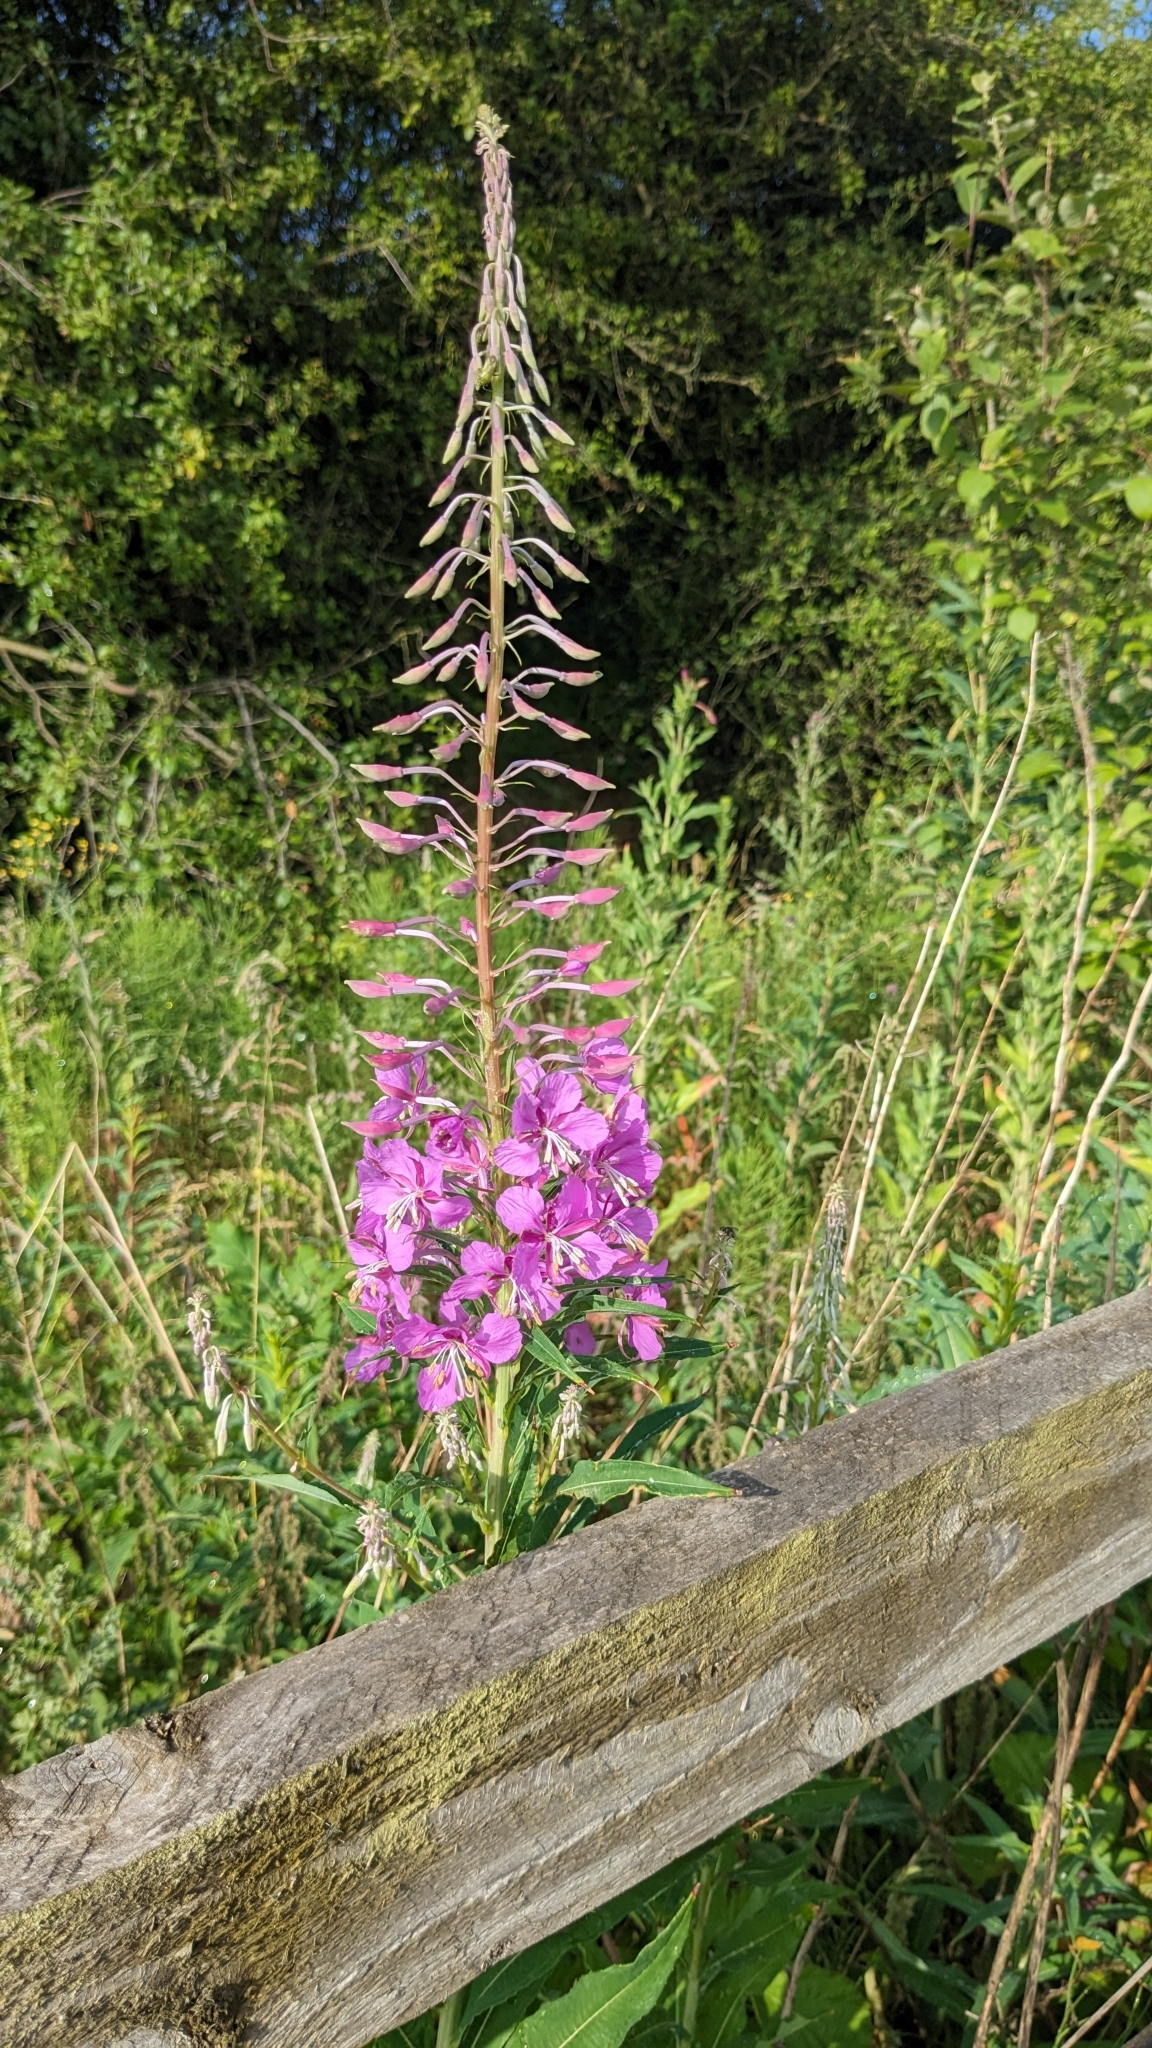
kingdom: Plantae
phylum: Tracheophyta
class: Magnoliopsida
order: Myrtales
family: Onagraceae
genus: Chamaenerion
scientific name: Chamaenerion angustifolium
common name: Fireweed
